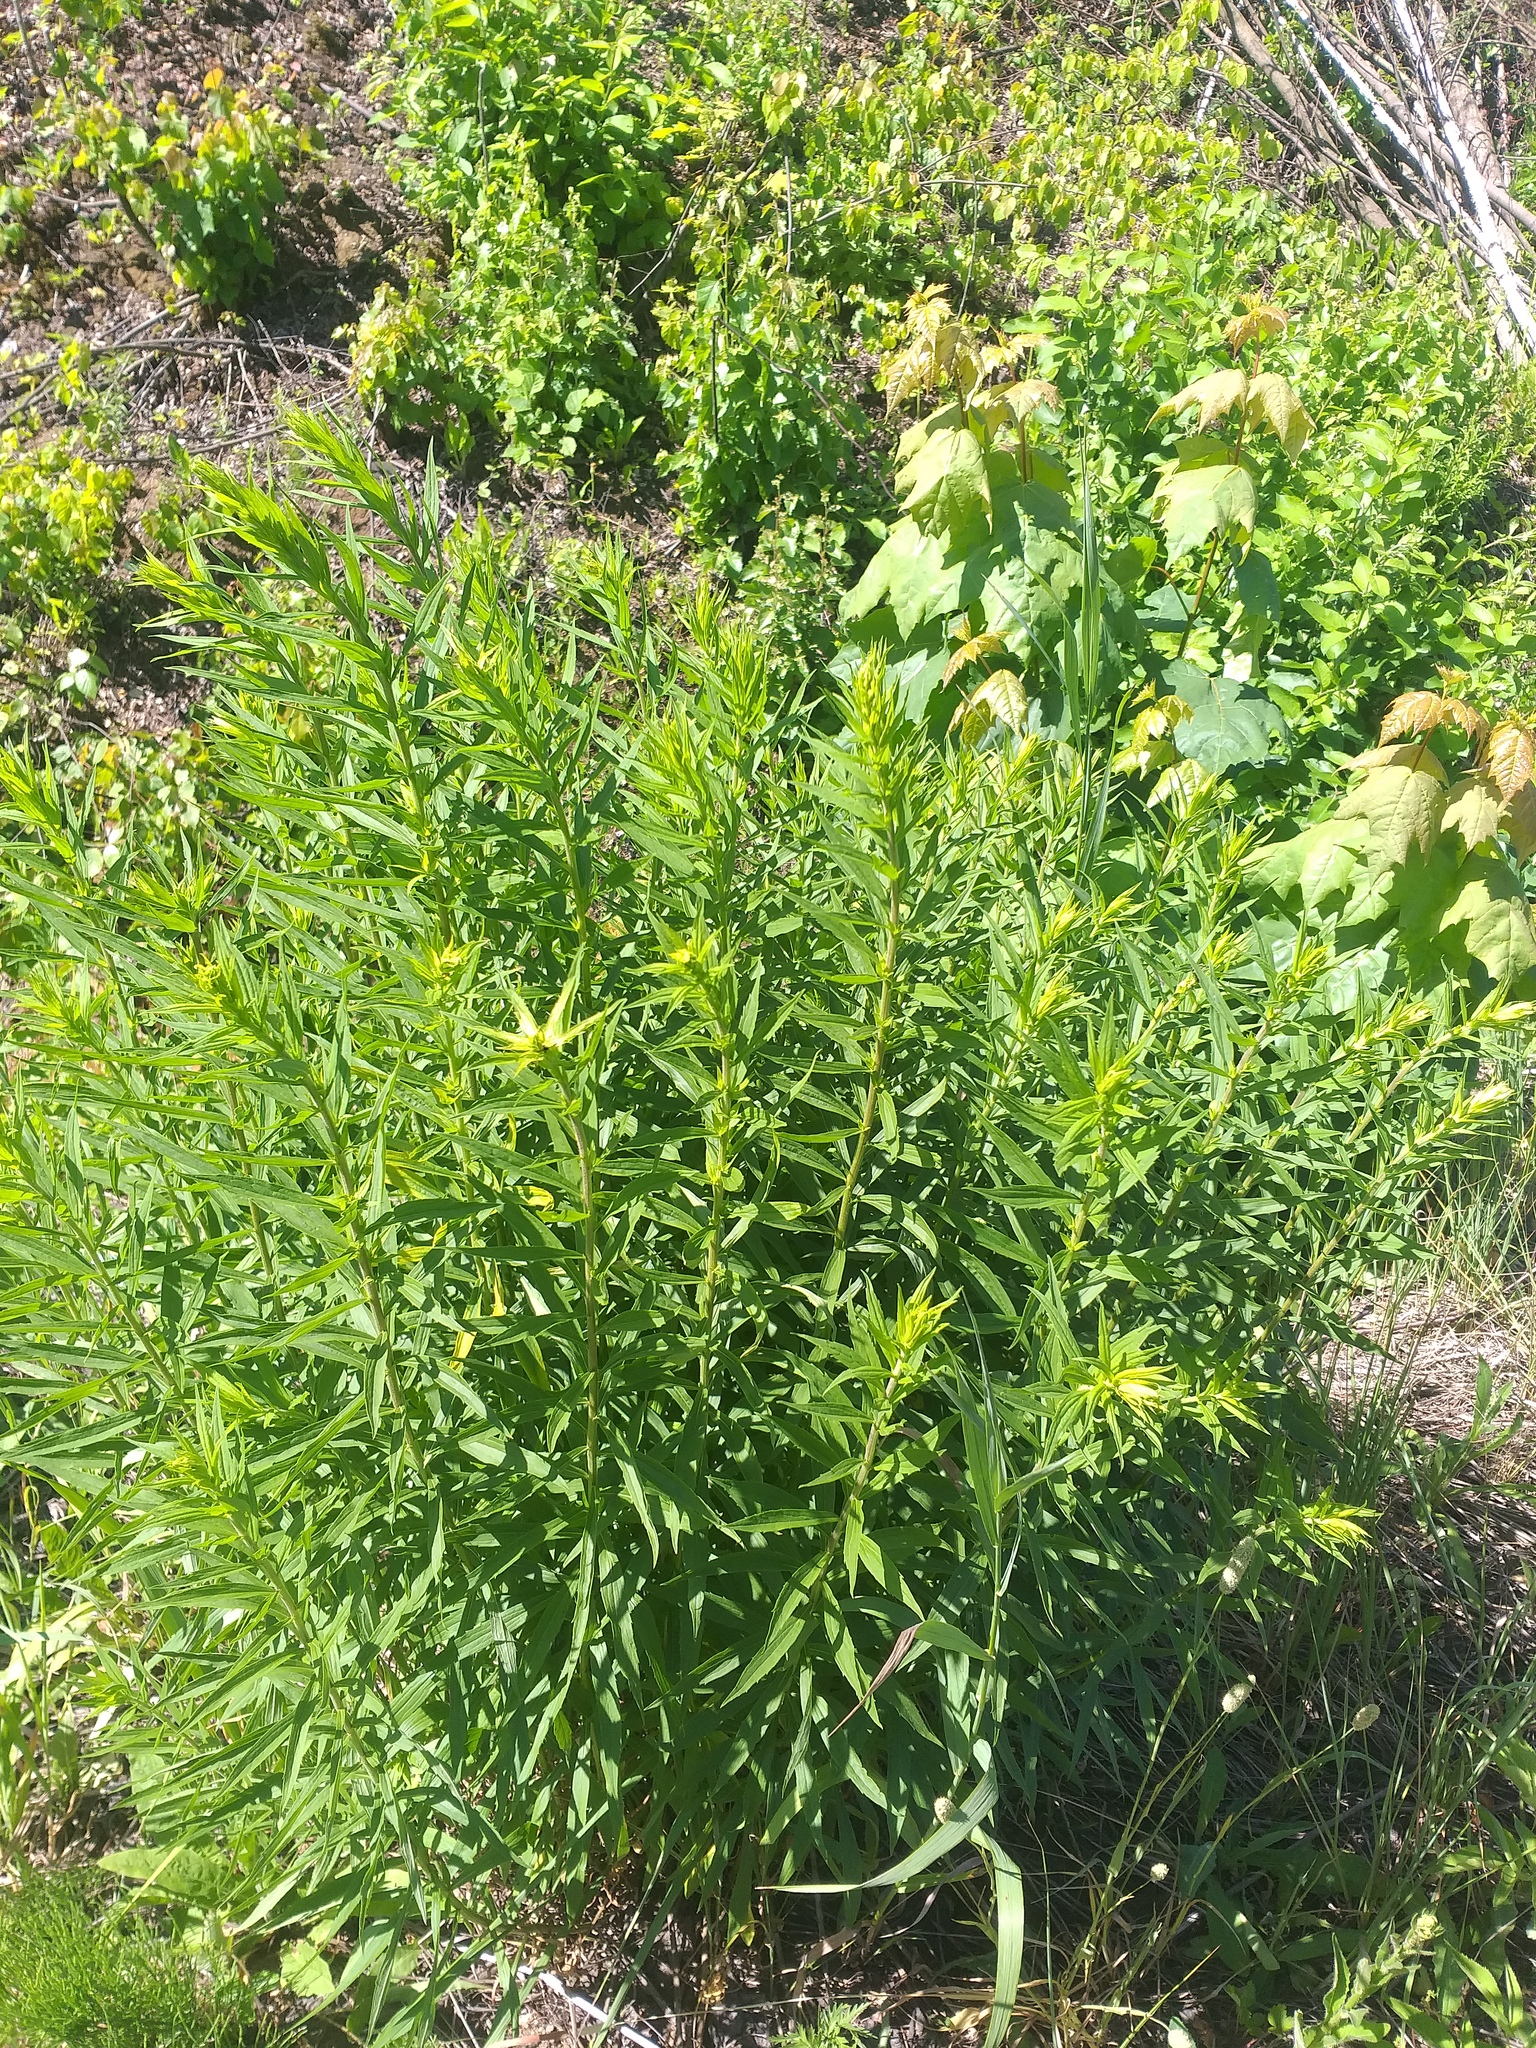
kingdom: Plantae
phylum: Tracheophyta
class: Magnoliopsida
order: Asterales
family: Asteraceae
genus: Solidago
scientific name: Solidago canadensis
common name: Canada goldenrod
